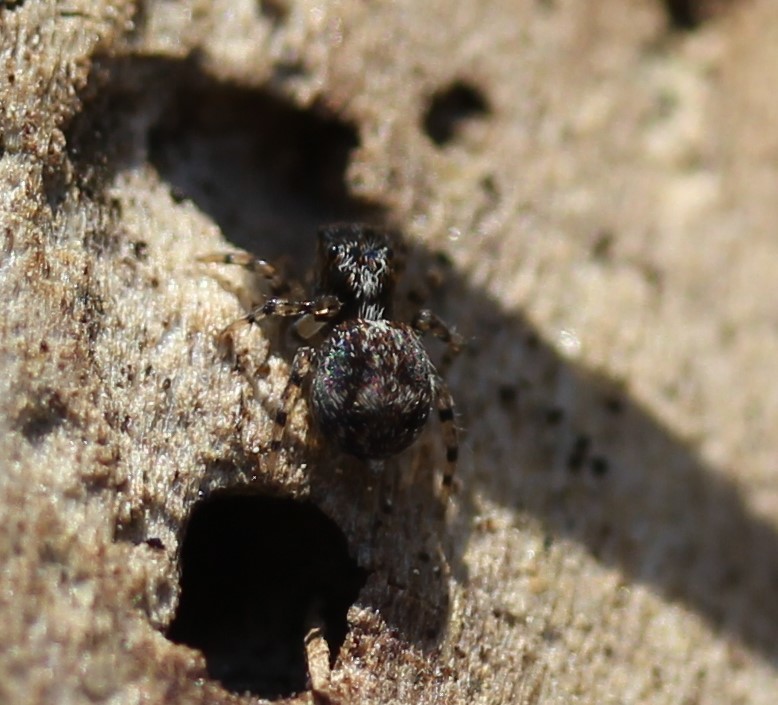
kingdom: Animalia
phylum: Arthropoda
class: Arachnida
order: Araneae
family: Salticidae
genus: Naphrys
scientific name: Naphrys pulex
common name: Flea jumping spider
